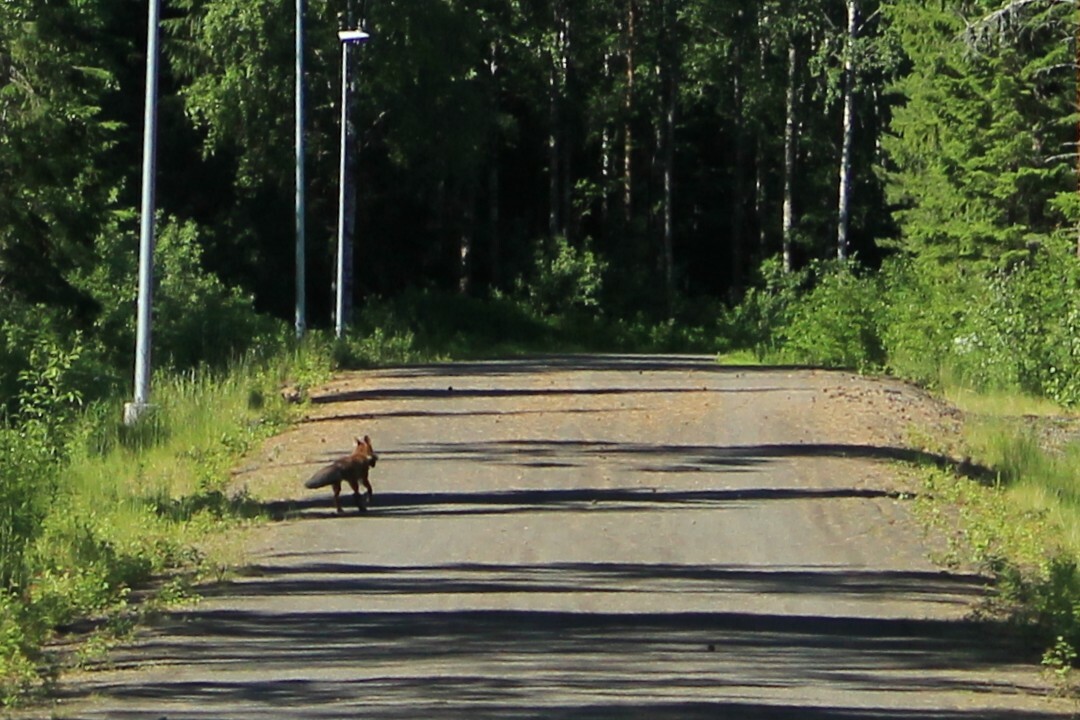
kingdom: Animalia
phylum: Chordata
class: Mammalia
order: Carnivora
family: Canidae
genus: Vulpes
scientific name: Vulpes vulpes
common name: Red fox
